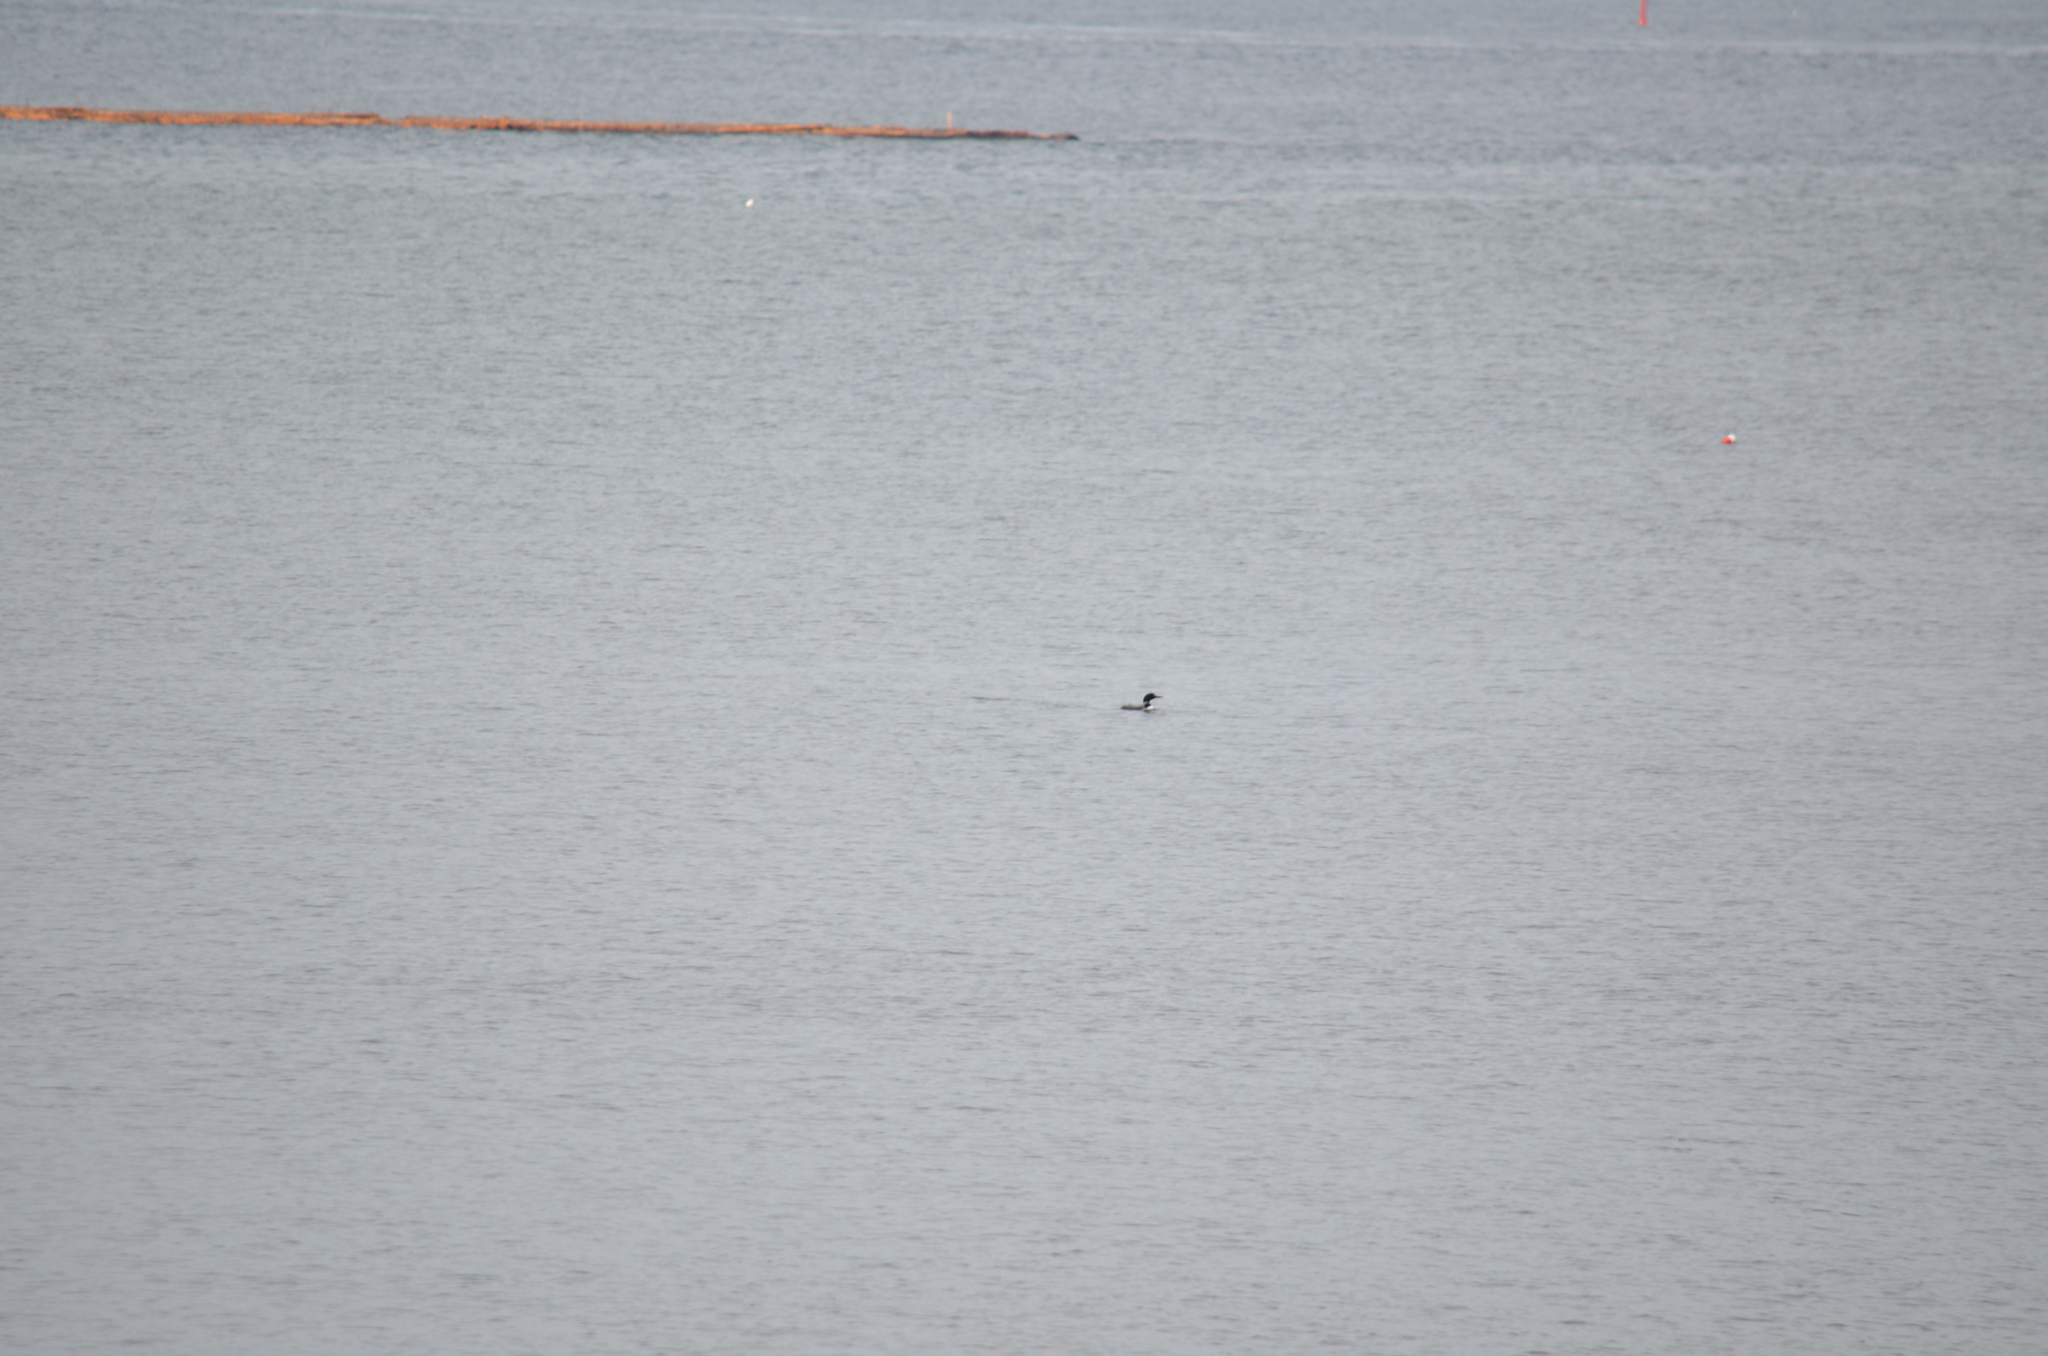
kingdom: Animalia
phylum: Chordata
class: Aves
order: Gaviiformes
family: Gaviidae
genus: Gavia
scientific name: Gavia immer
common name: Common loon
